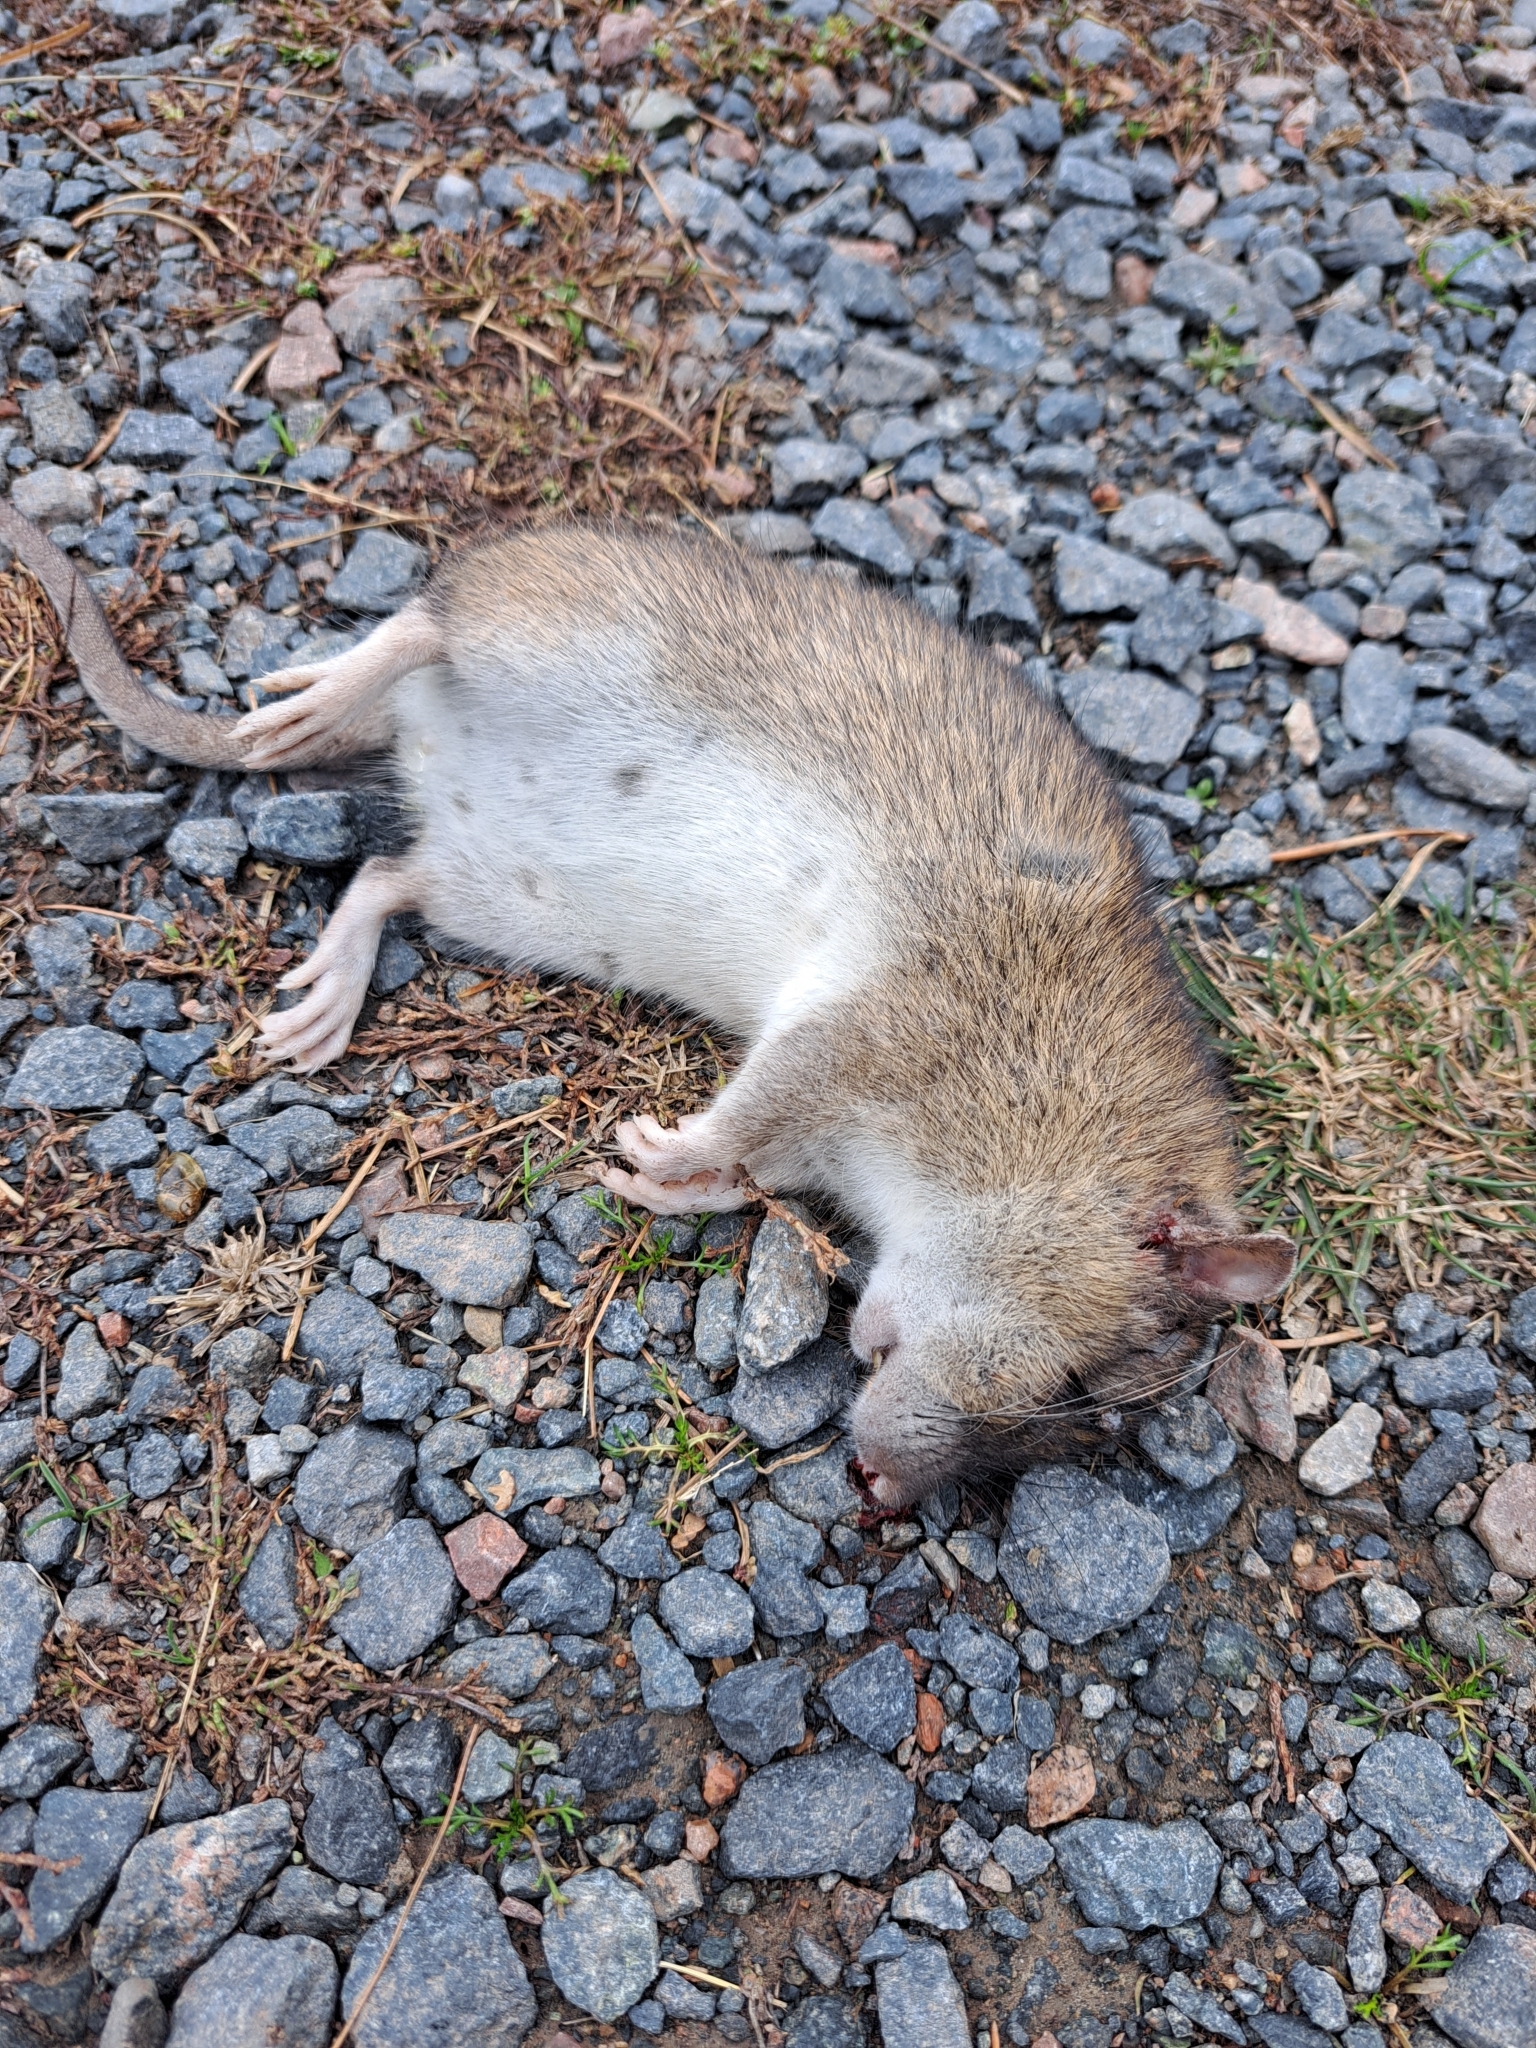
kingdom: Animalia
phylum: Chordata
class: Mammalia
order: Rodentia
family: Muridae
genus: Rattus
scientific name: Rattus norvegicus
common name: Brown rat
